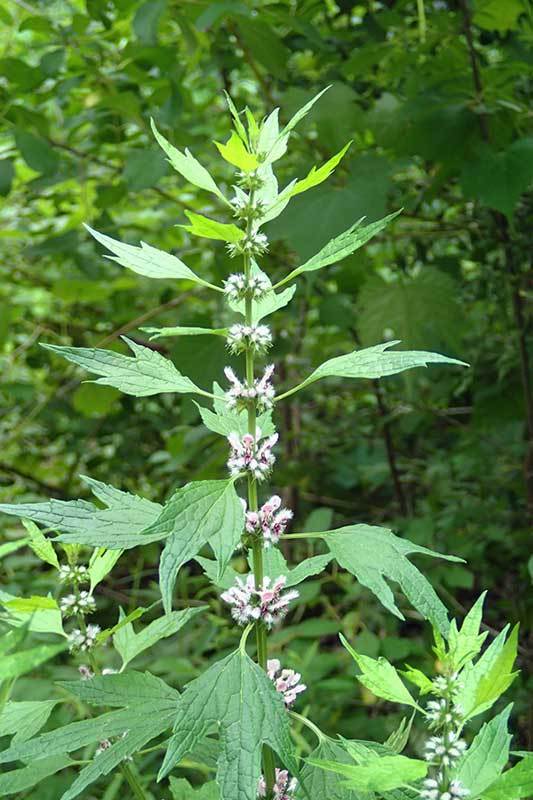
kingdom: Plantae
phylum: Tracheophyta
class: Magnoliopsida
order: Lamiales
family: Lamiaceae
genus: Leonurus
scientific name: Leonurus cardiaca
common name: Motherwort
